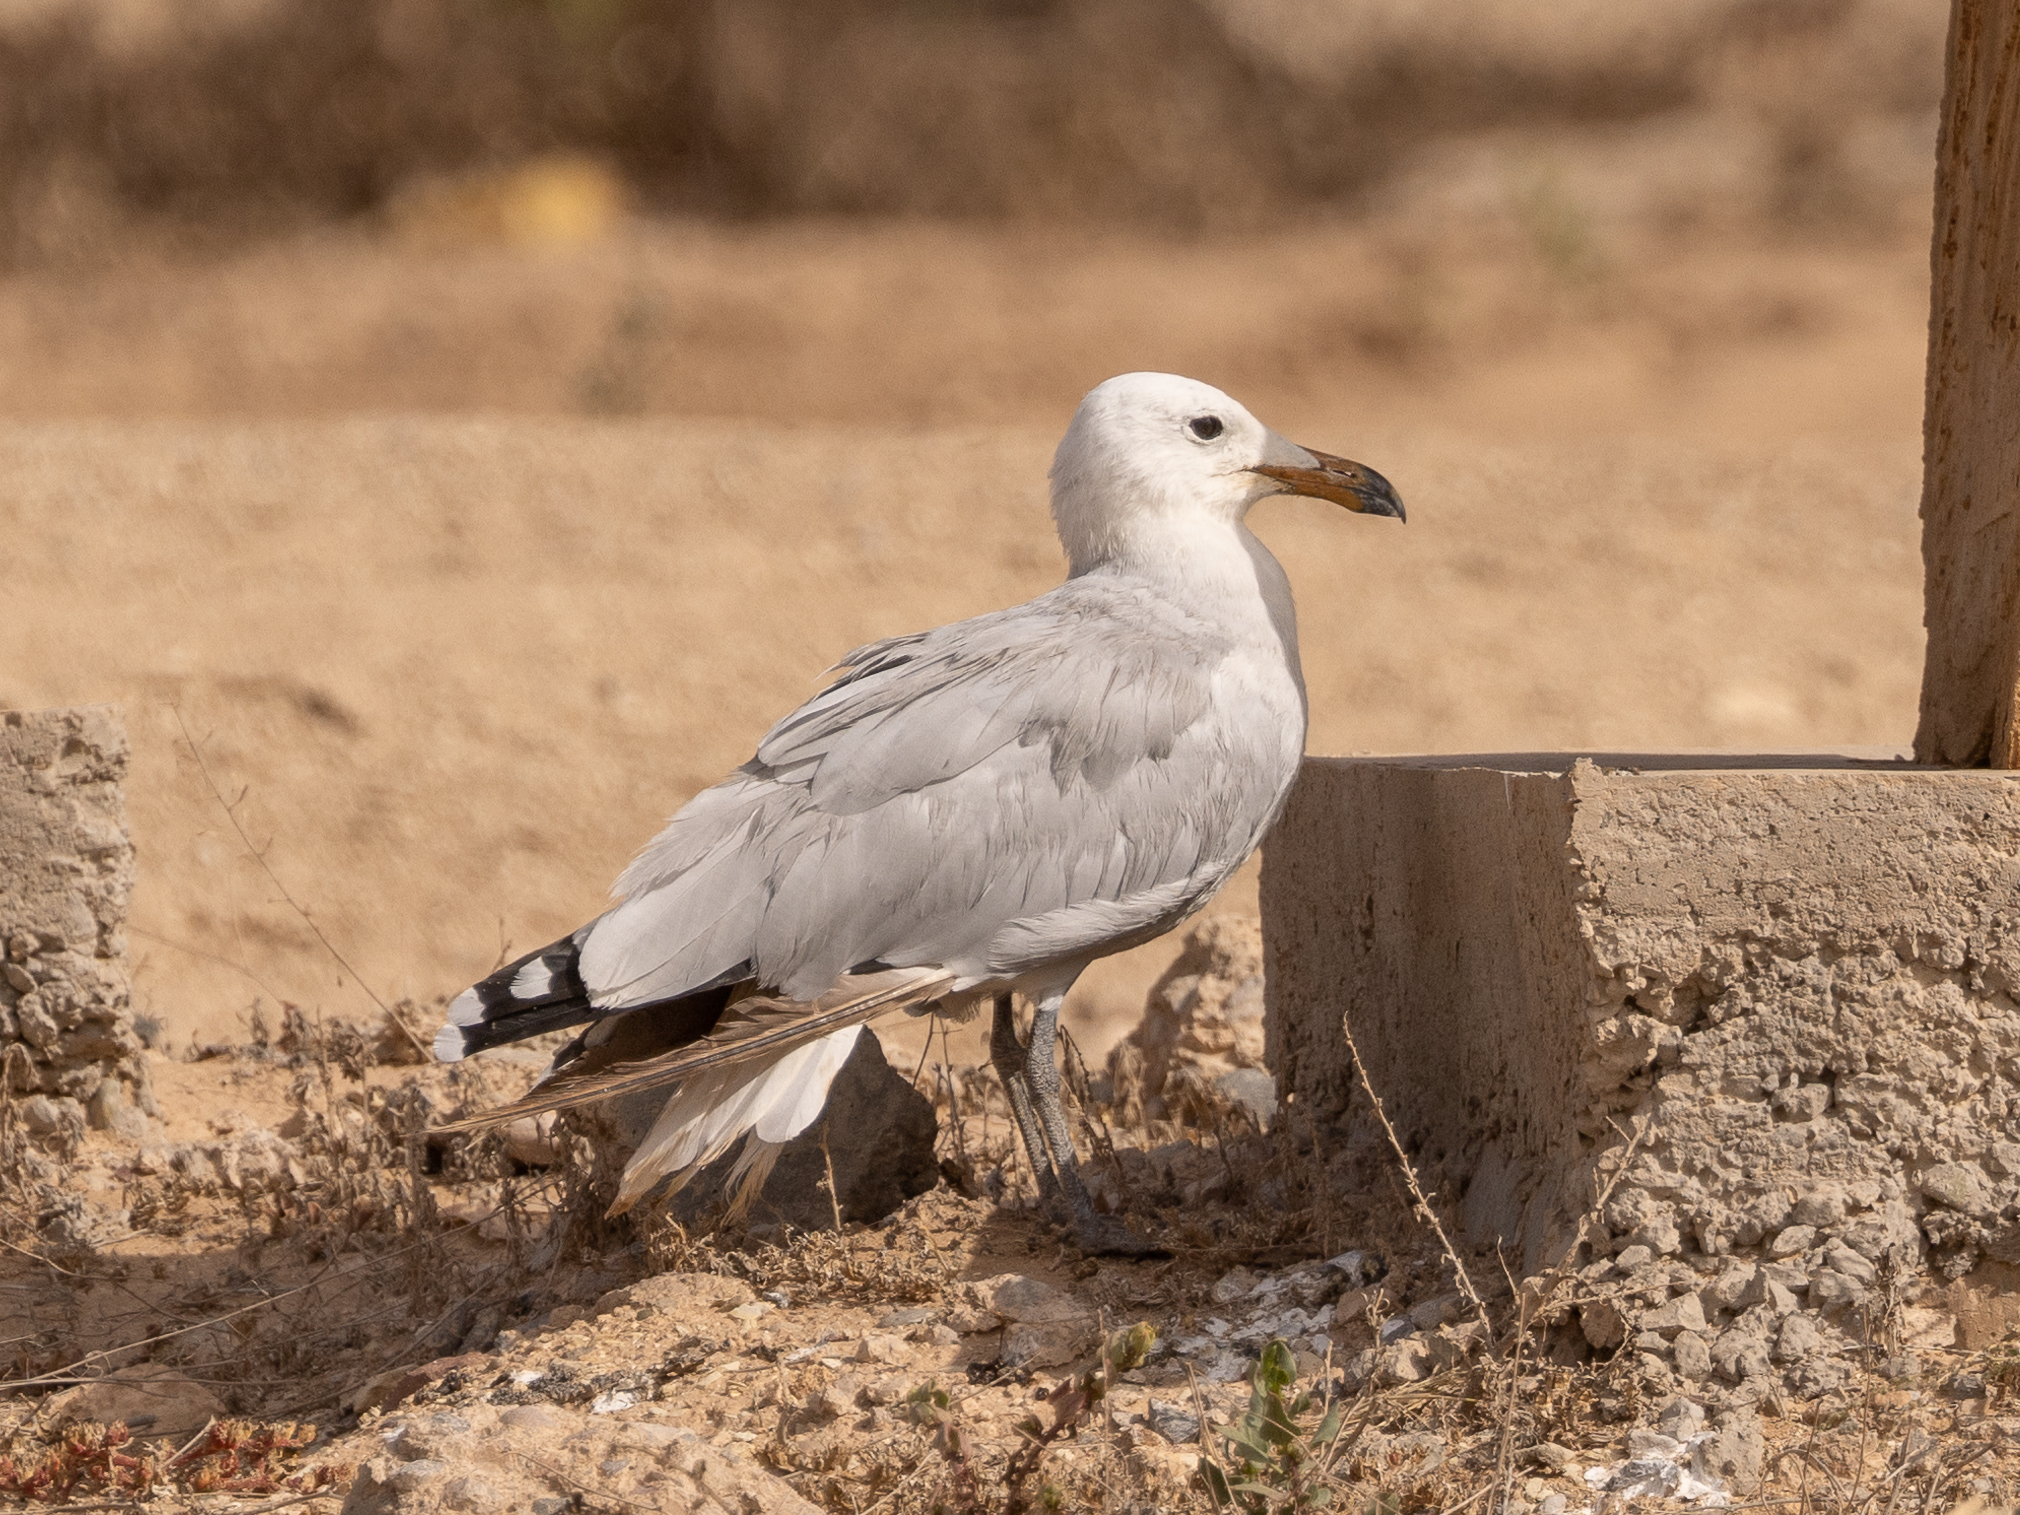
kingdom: Animalia
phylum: Chordata
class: Aves
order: Charadriiformes
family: Laridae
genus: Ichthyaetus
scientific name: Ichthyaetus audouinii
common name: Audouin's gull
